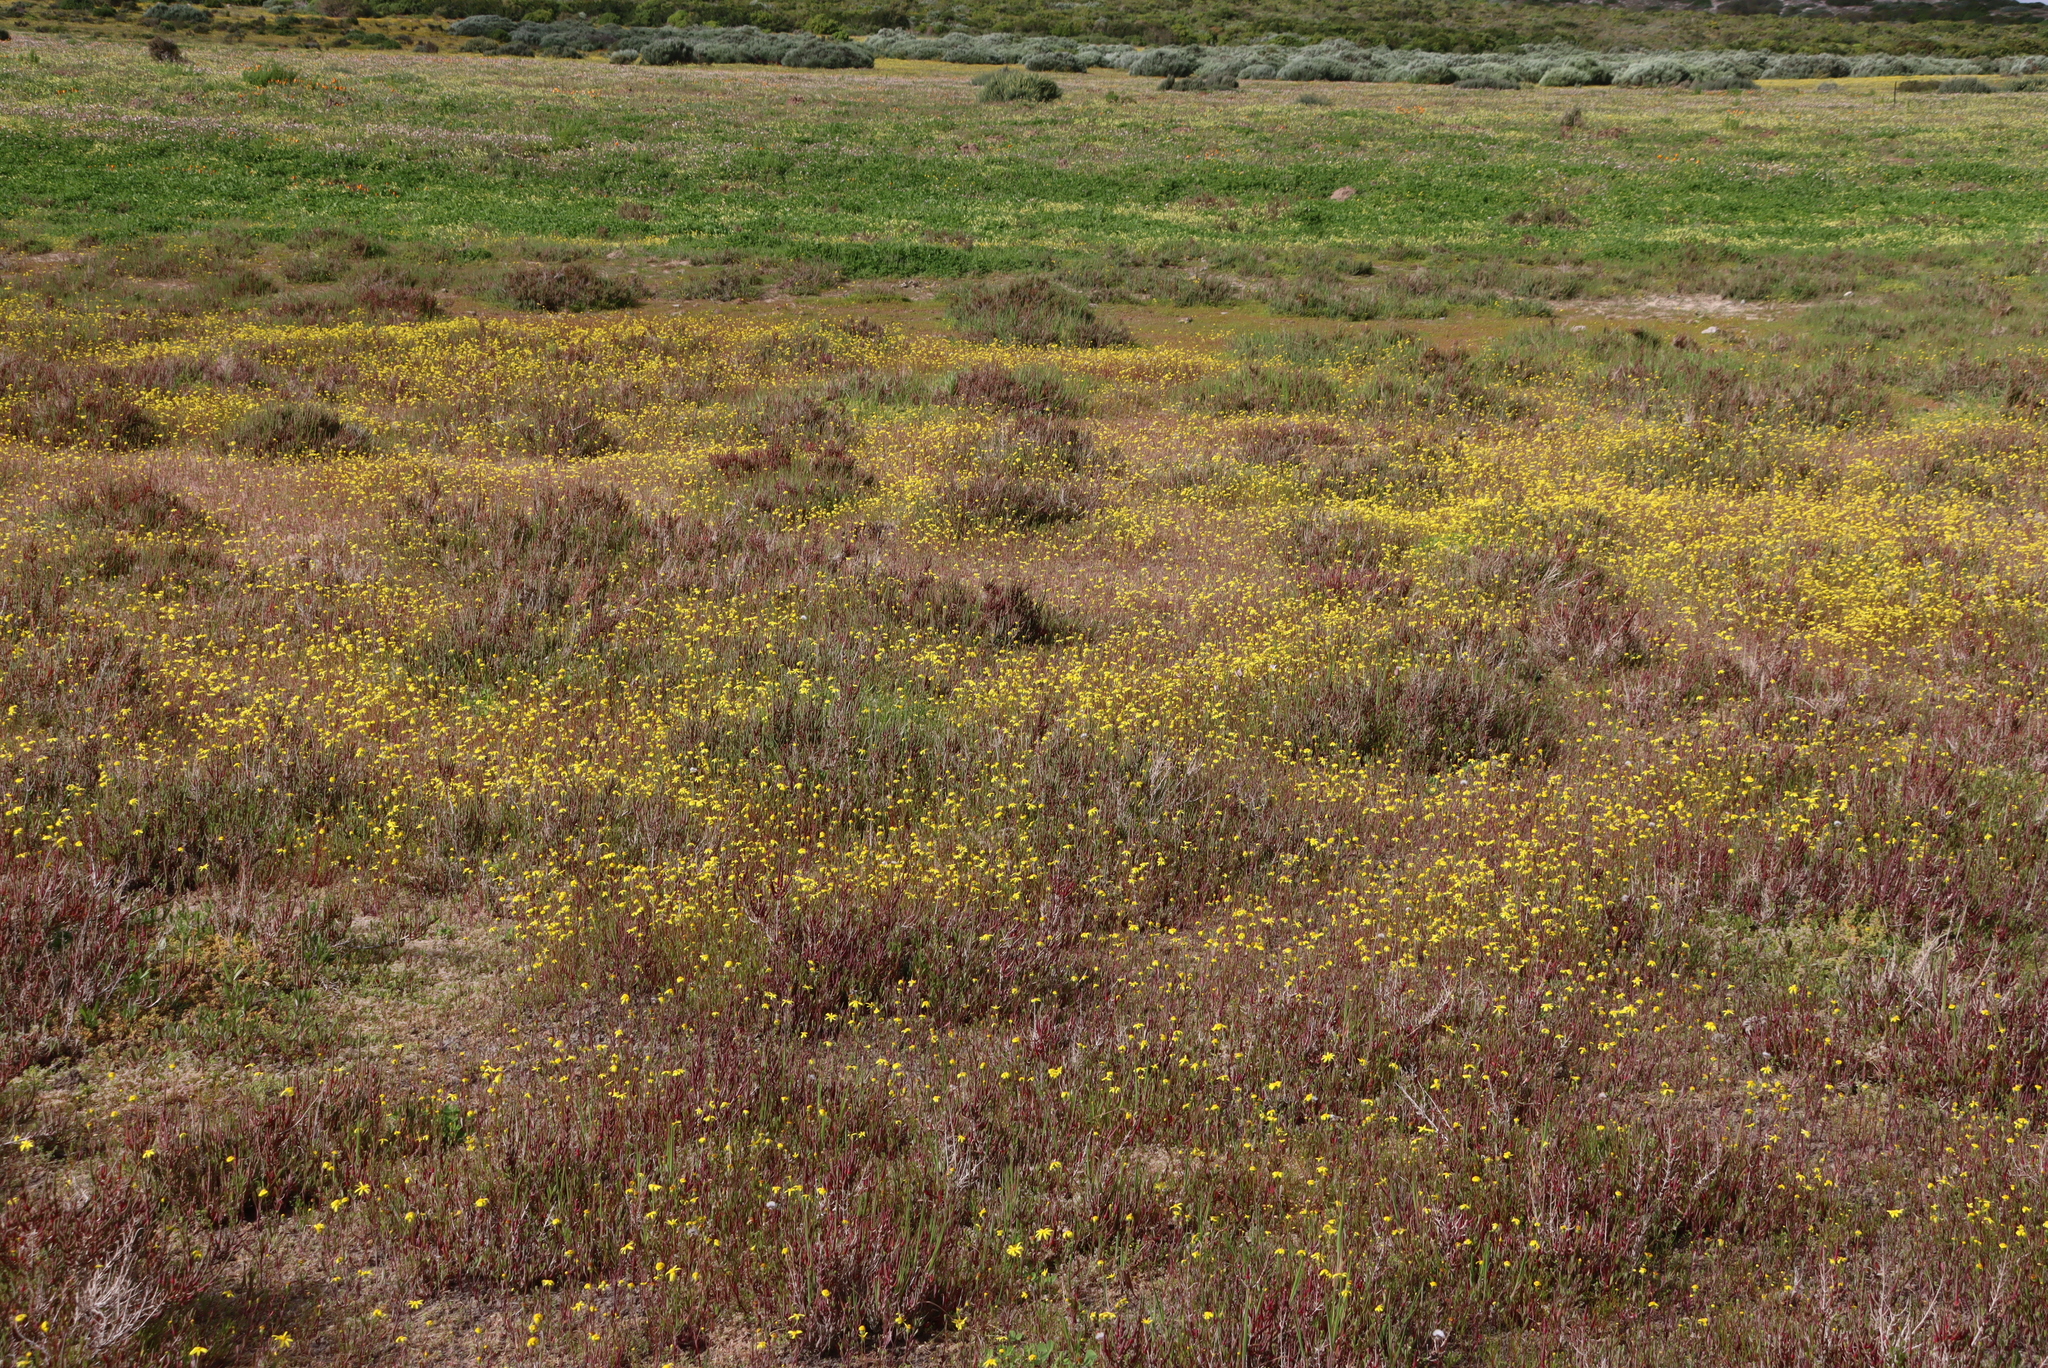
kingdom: Plantae
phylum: Tracheophyta
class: Magnoliopsida
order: Caryophyllales
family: Amaranthaceae
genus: Salicornia
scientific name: Salicornia pillansii
